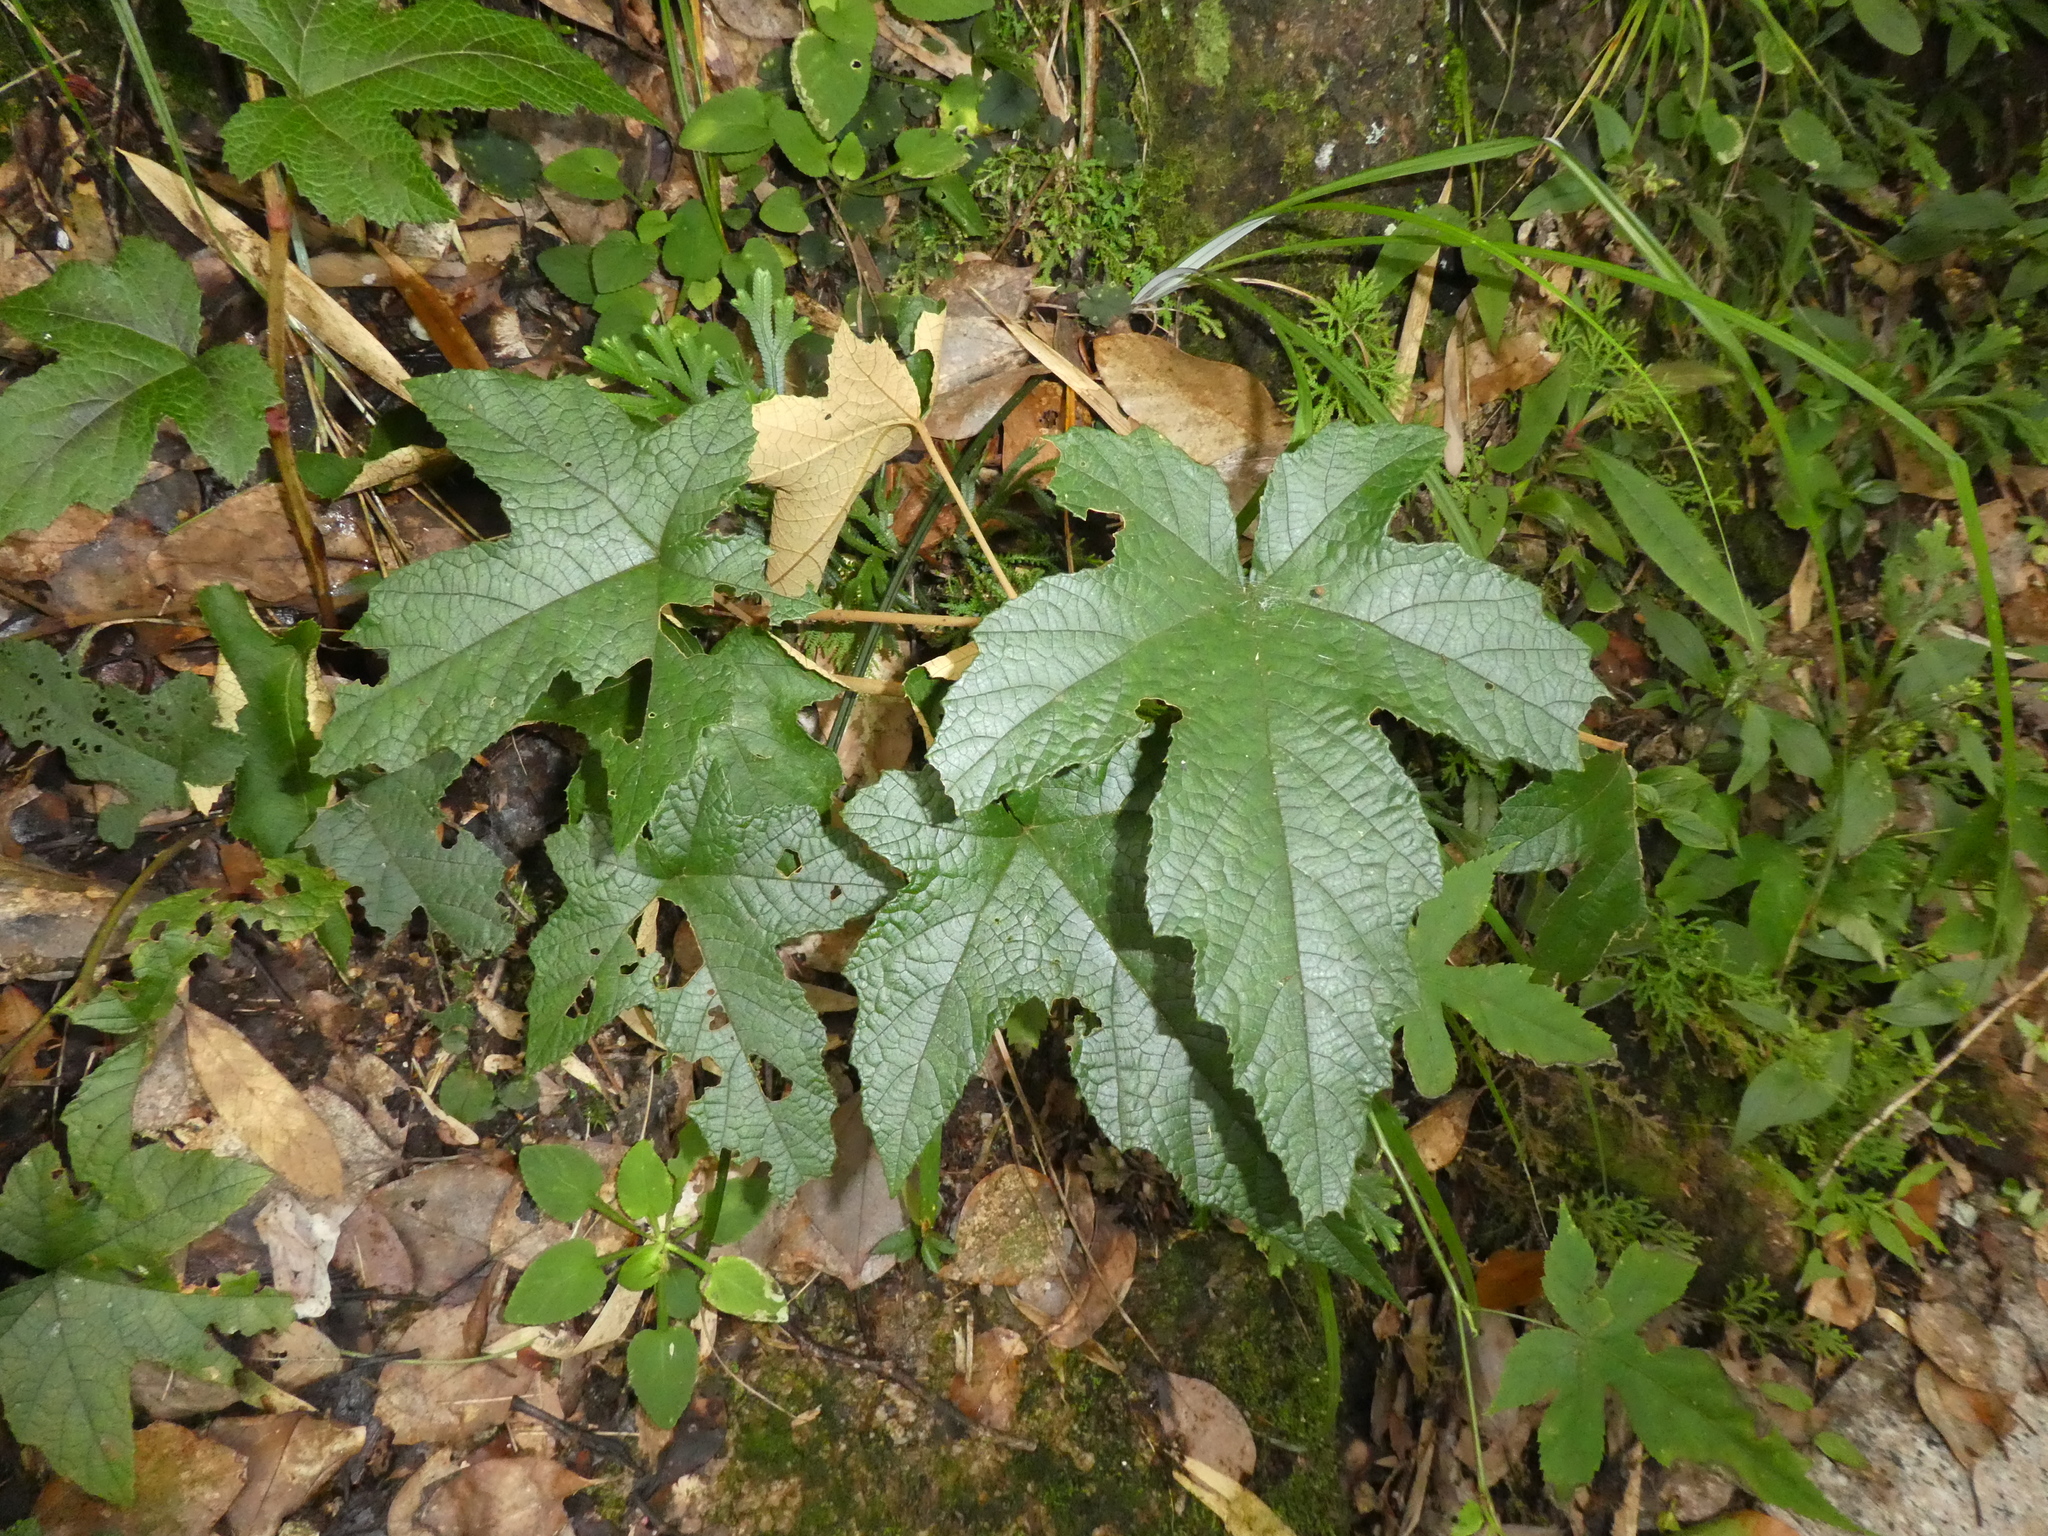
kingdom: Plantae
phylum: Tracheophyta
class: Magnoliopsida
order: Rosales
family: Rosaceae
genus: Rubus
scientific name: Rubus reflexus
